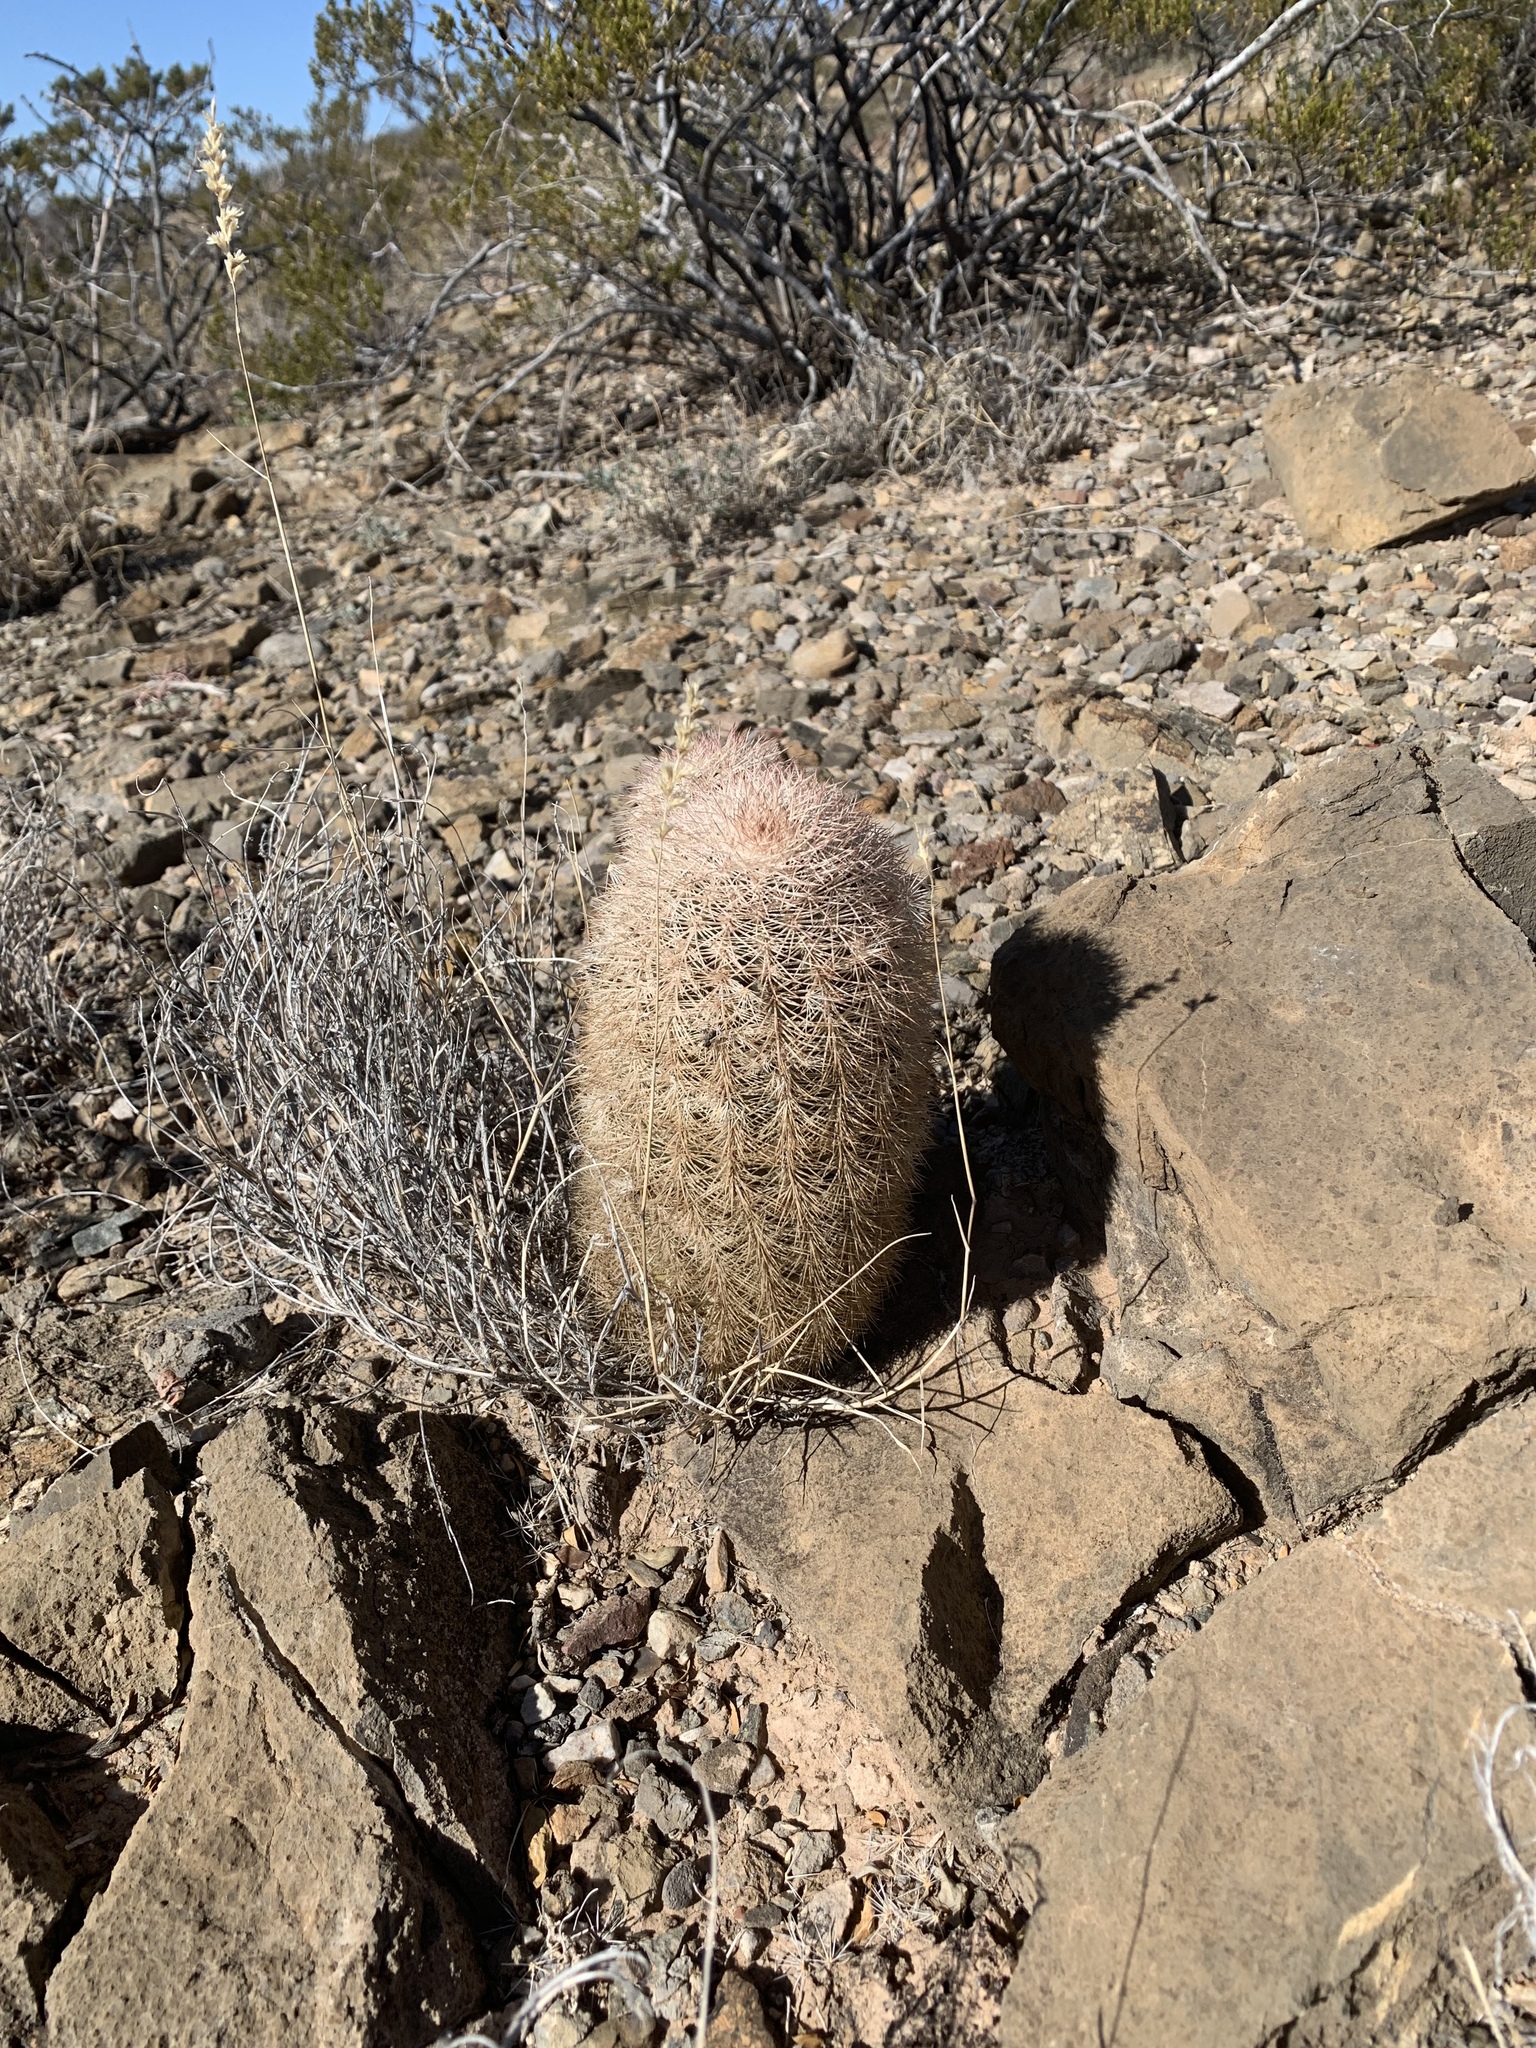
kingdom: Plantae
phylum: Tracheophyta
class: Magnoliopsida
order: Caryophyllales
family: Cactaceae
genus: Echinocereus
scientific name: Echinocereus dasyacanthus
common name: Spiny hedgehog cactus
